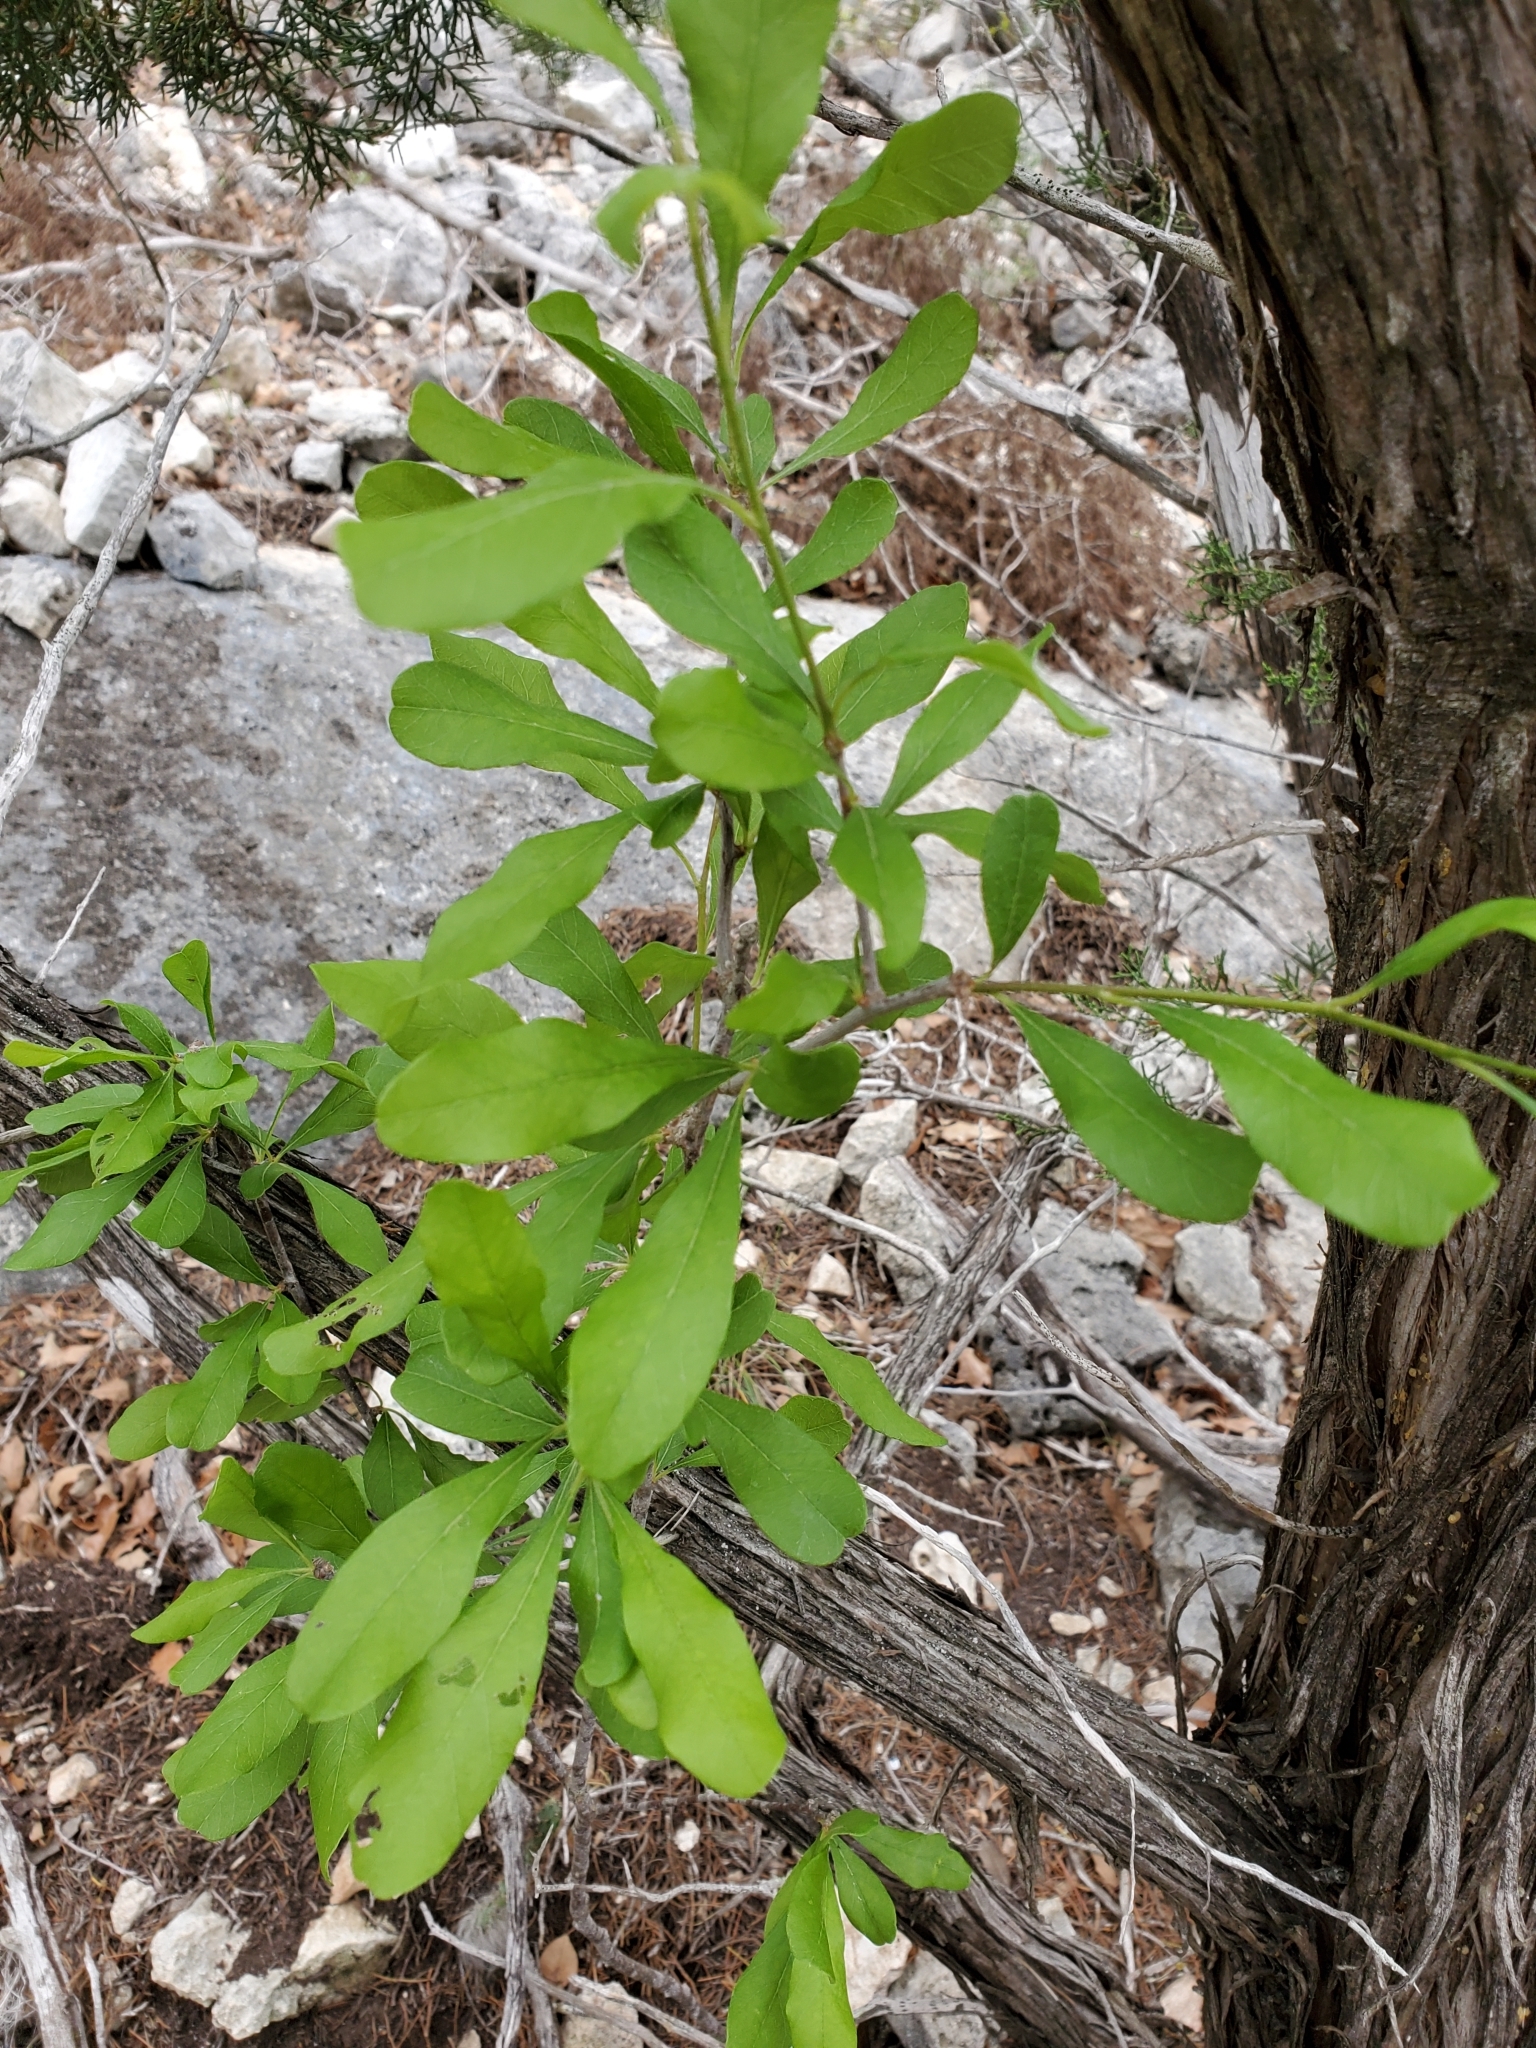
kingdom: Plantae
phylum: Tracheophyta
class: Magnoliopsida
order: Ericales
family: Sapotaceae
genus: Sideroxylon
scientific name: Sideroxylon lanuginosum
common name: Chittamwood
